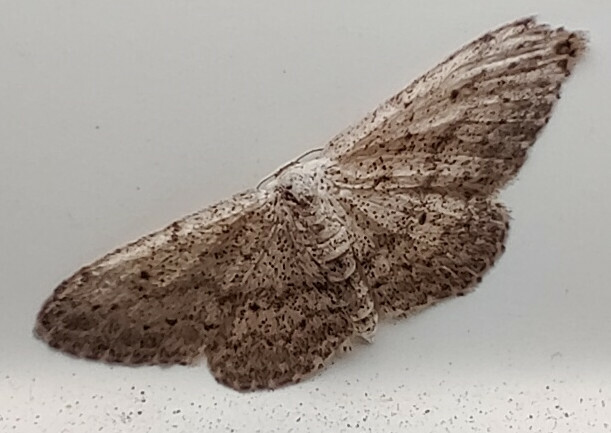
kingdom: Animalia
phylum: Arthropoda
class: Insecta
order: Lepidoptera
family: Geometridae
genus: Idaea
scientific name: Idaea seriata
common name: Small dusty wave
